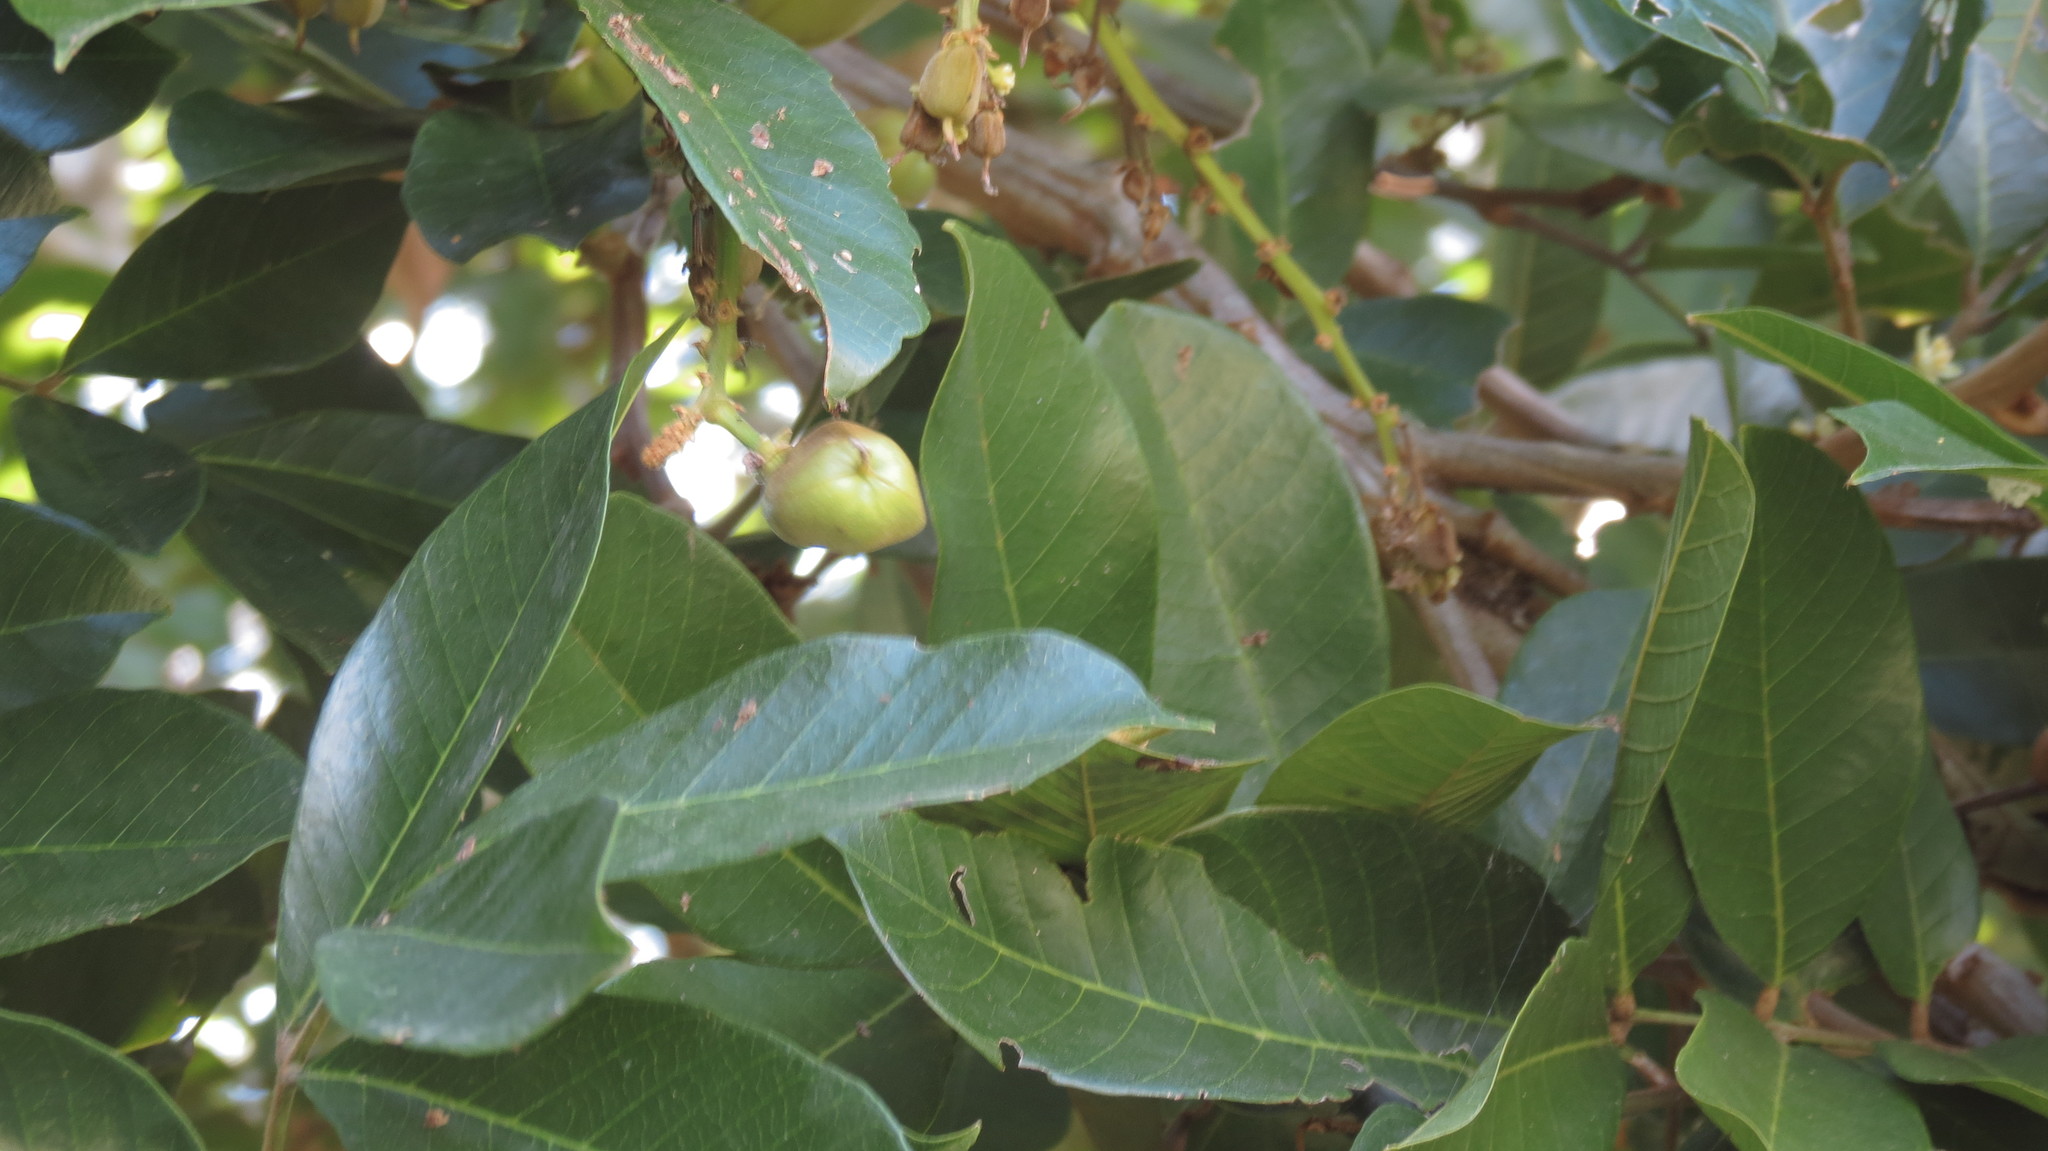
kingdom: Plantae
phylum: Tracheophyta
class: Magnoliopsida
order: Sapindales
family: Sapindaceae
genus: Blighia
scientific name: Blighia sapida
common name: Akee
